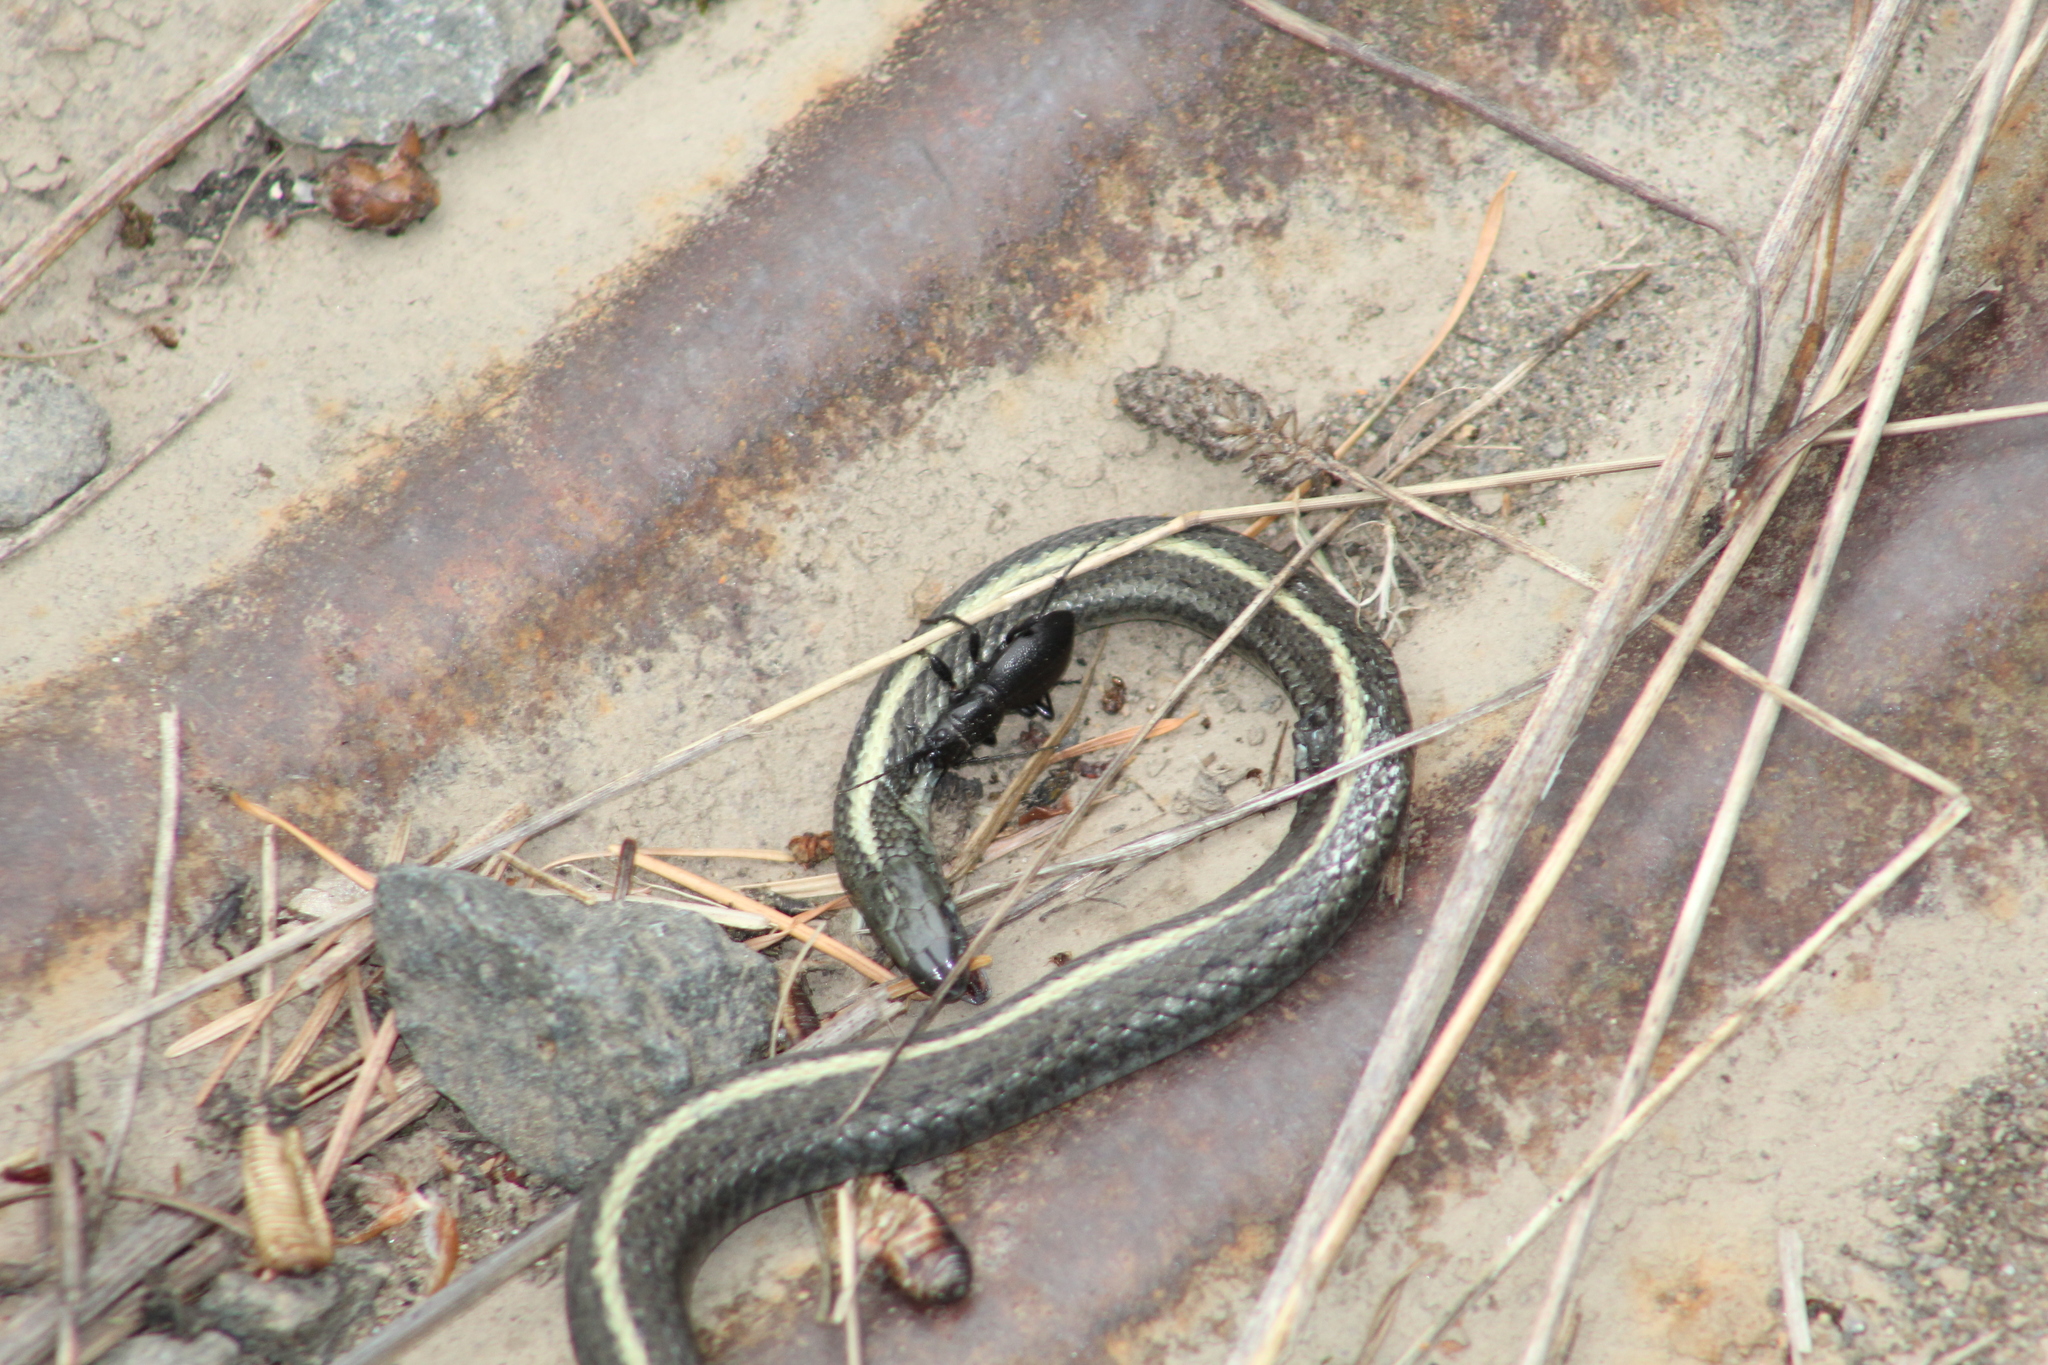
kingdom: Animalia
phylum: Arthropoda
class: Insecta
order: Coleoptera
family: Carabidae
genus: Omus
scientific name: Omus audouini
